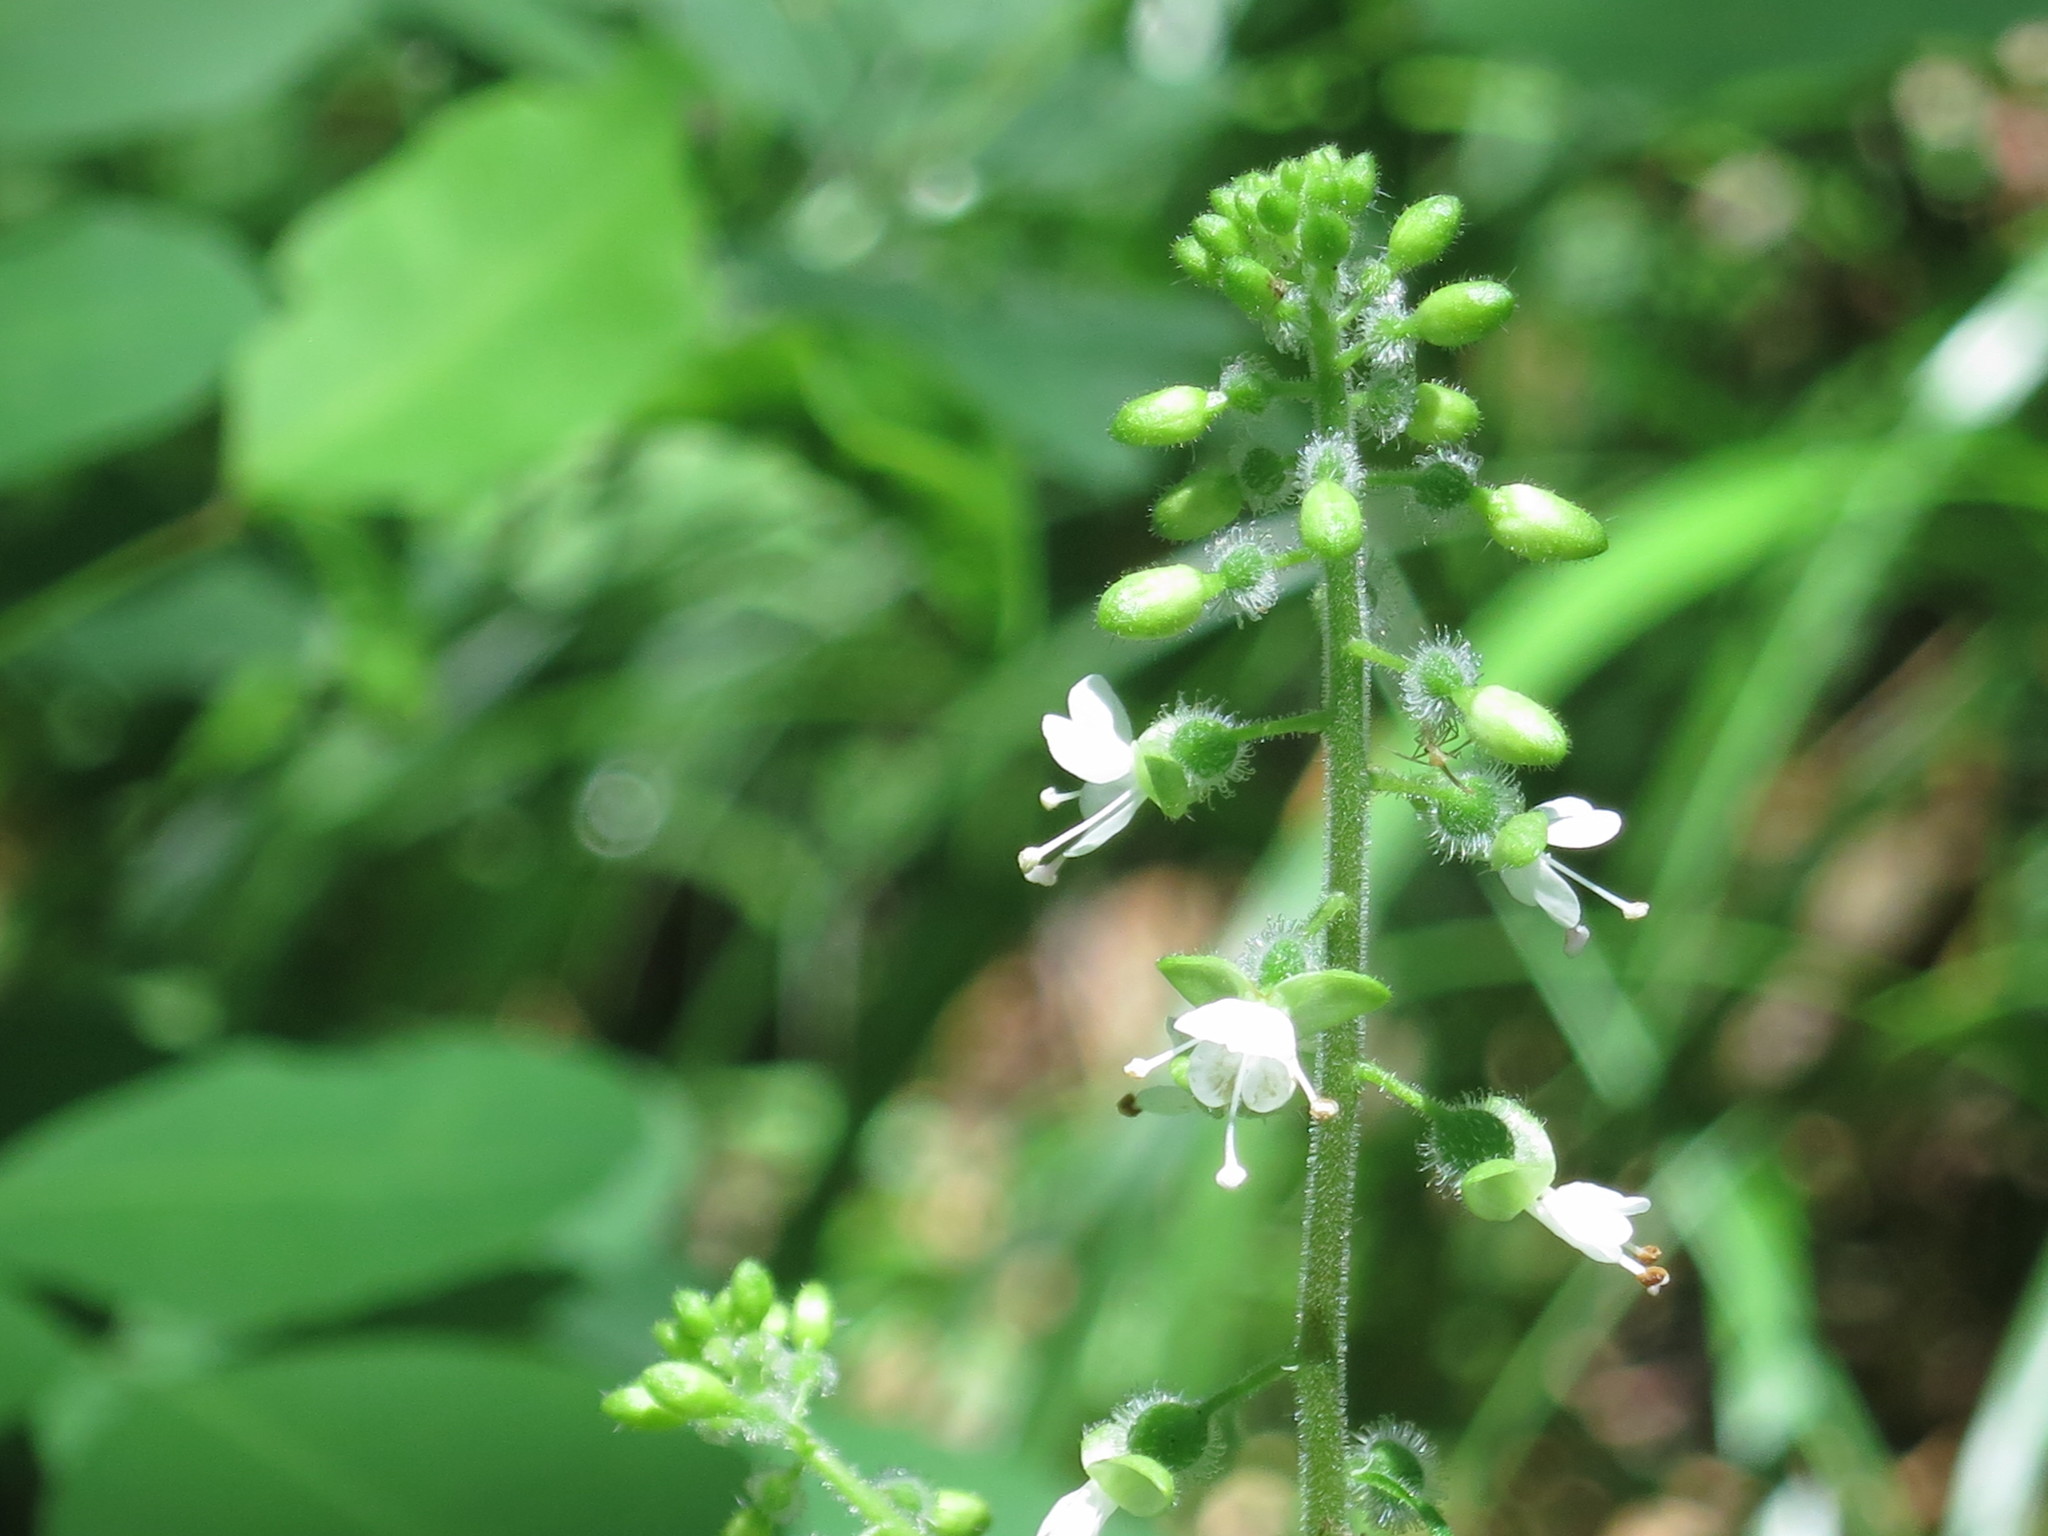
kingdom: Plantae
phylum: Tracheophyta
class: Magnoliopsida
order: Myrtales
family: Onagraceae
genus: Circaea
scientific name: Circaea cordata
